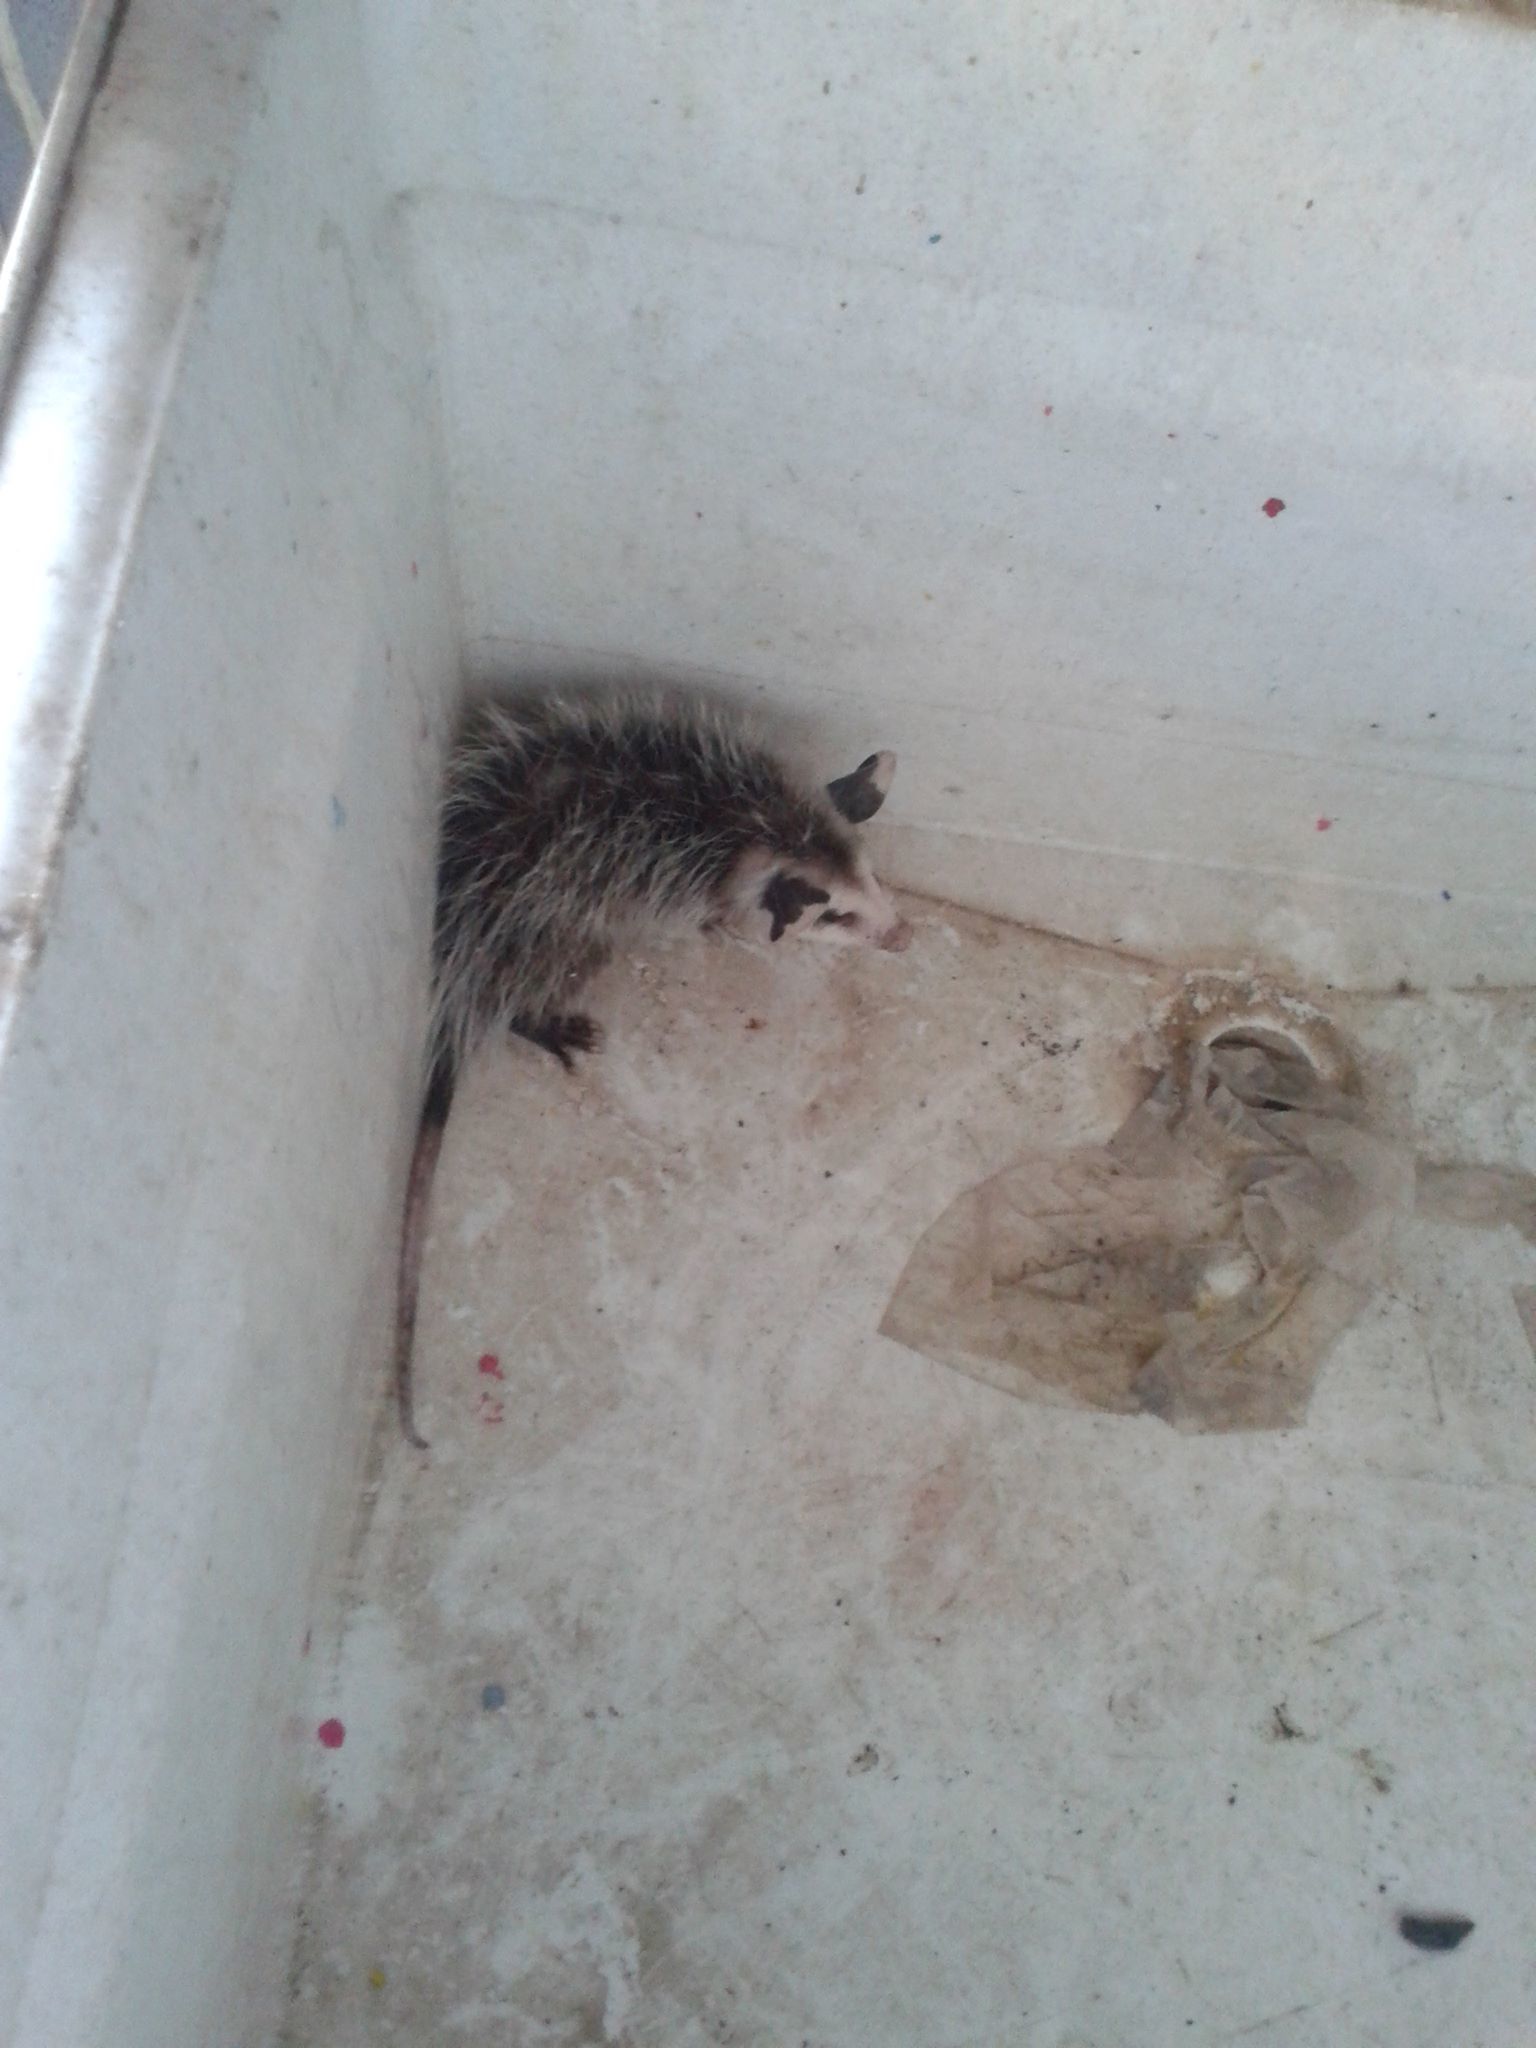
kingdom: Animalia
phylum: Chordata
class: Mammalia
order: Didelphimorphia
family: Didelphidae
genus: Didelphis
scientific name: Didelphis virginiana
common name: Virginia opossum
